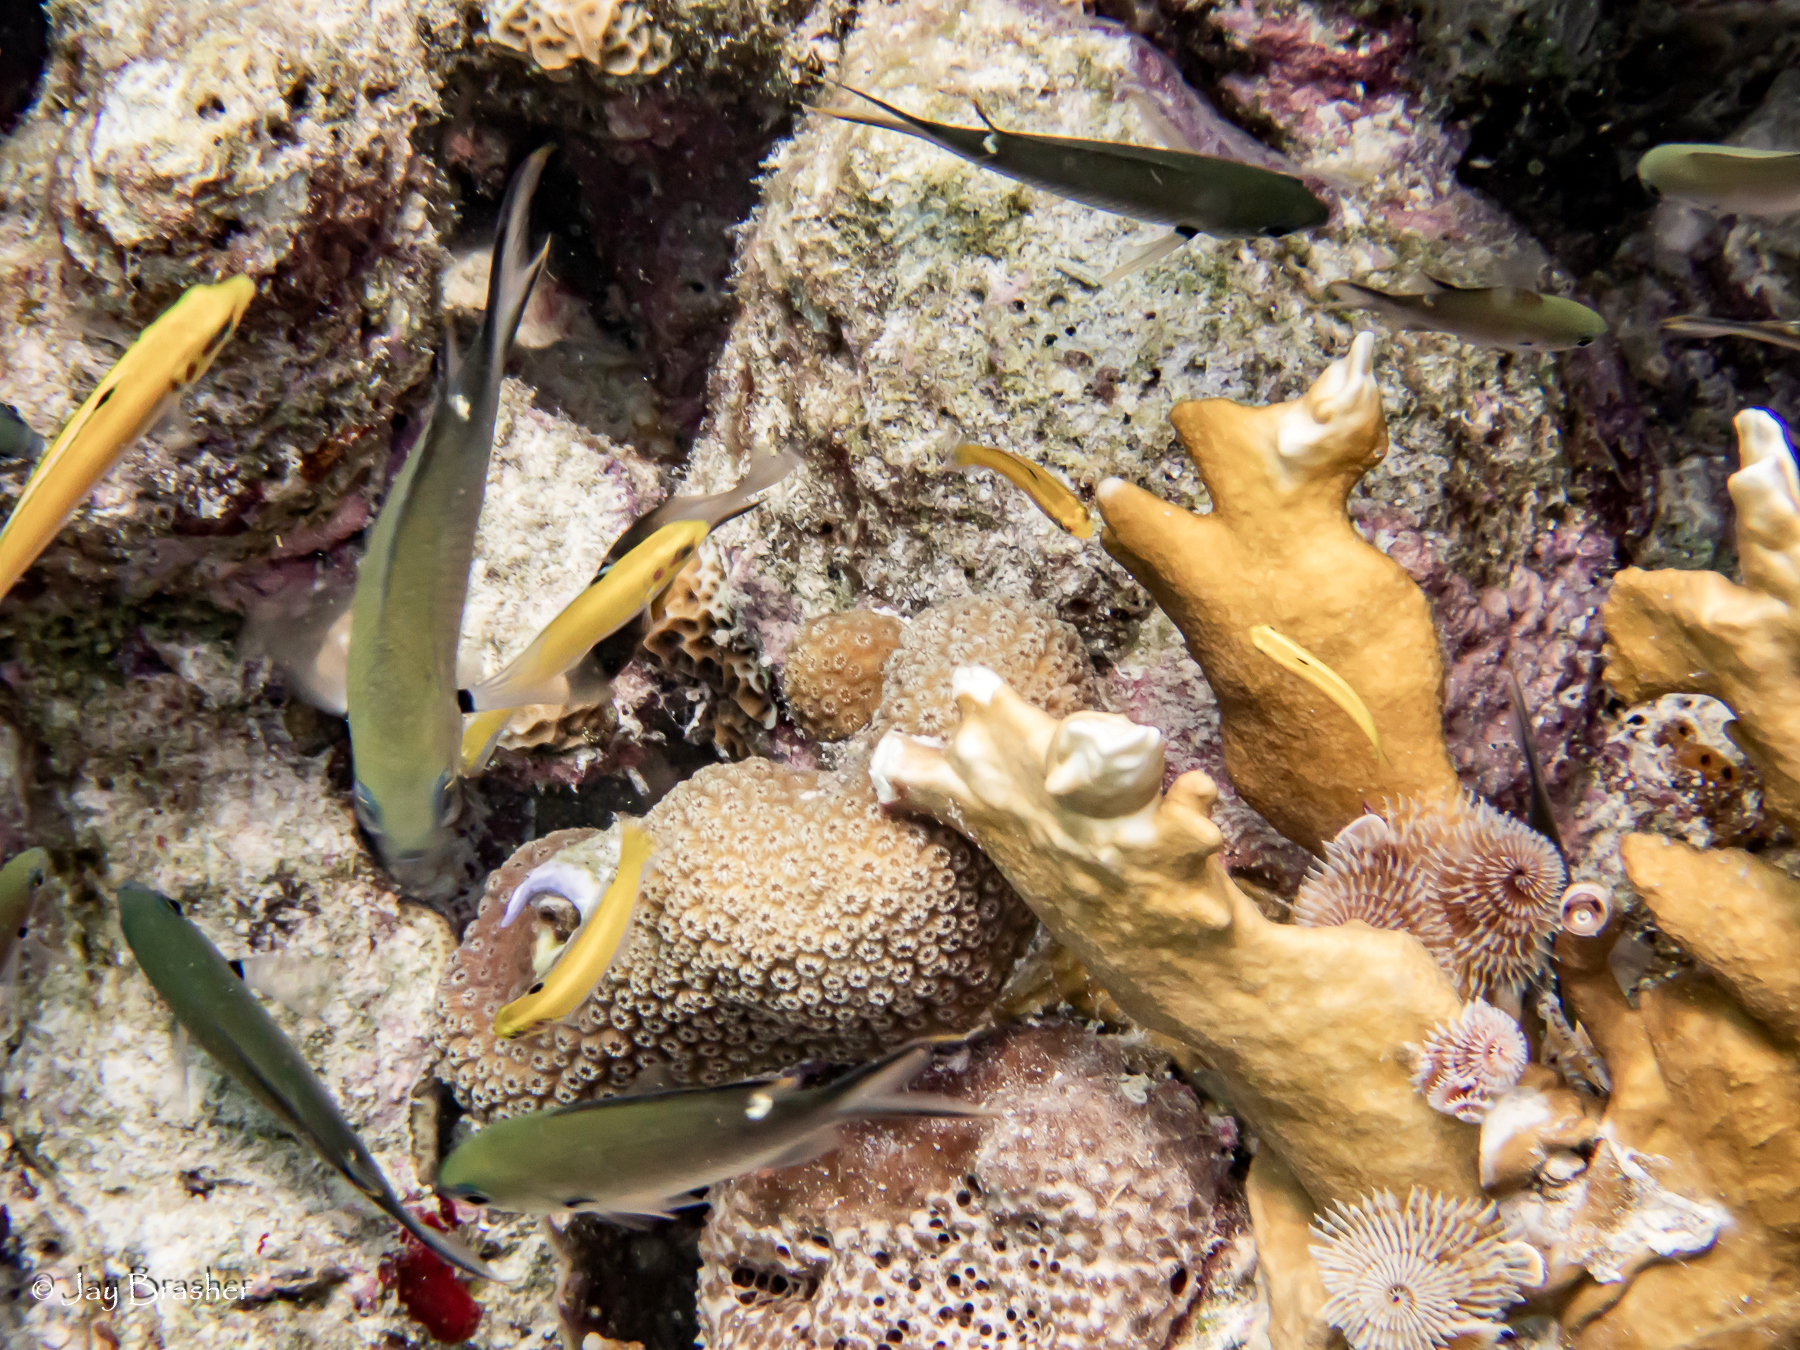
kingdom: Animalia
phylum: Chordata
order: Perciformes
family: Pomacentridae
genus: Chromis
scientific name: Chromis multilineata
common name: Brown chromis
